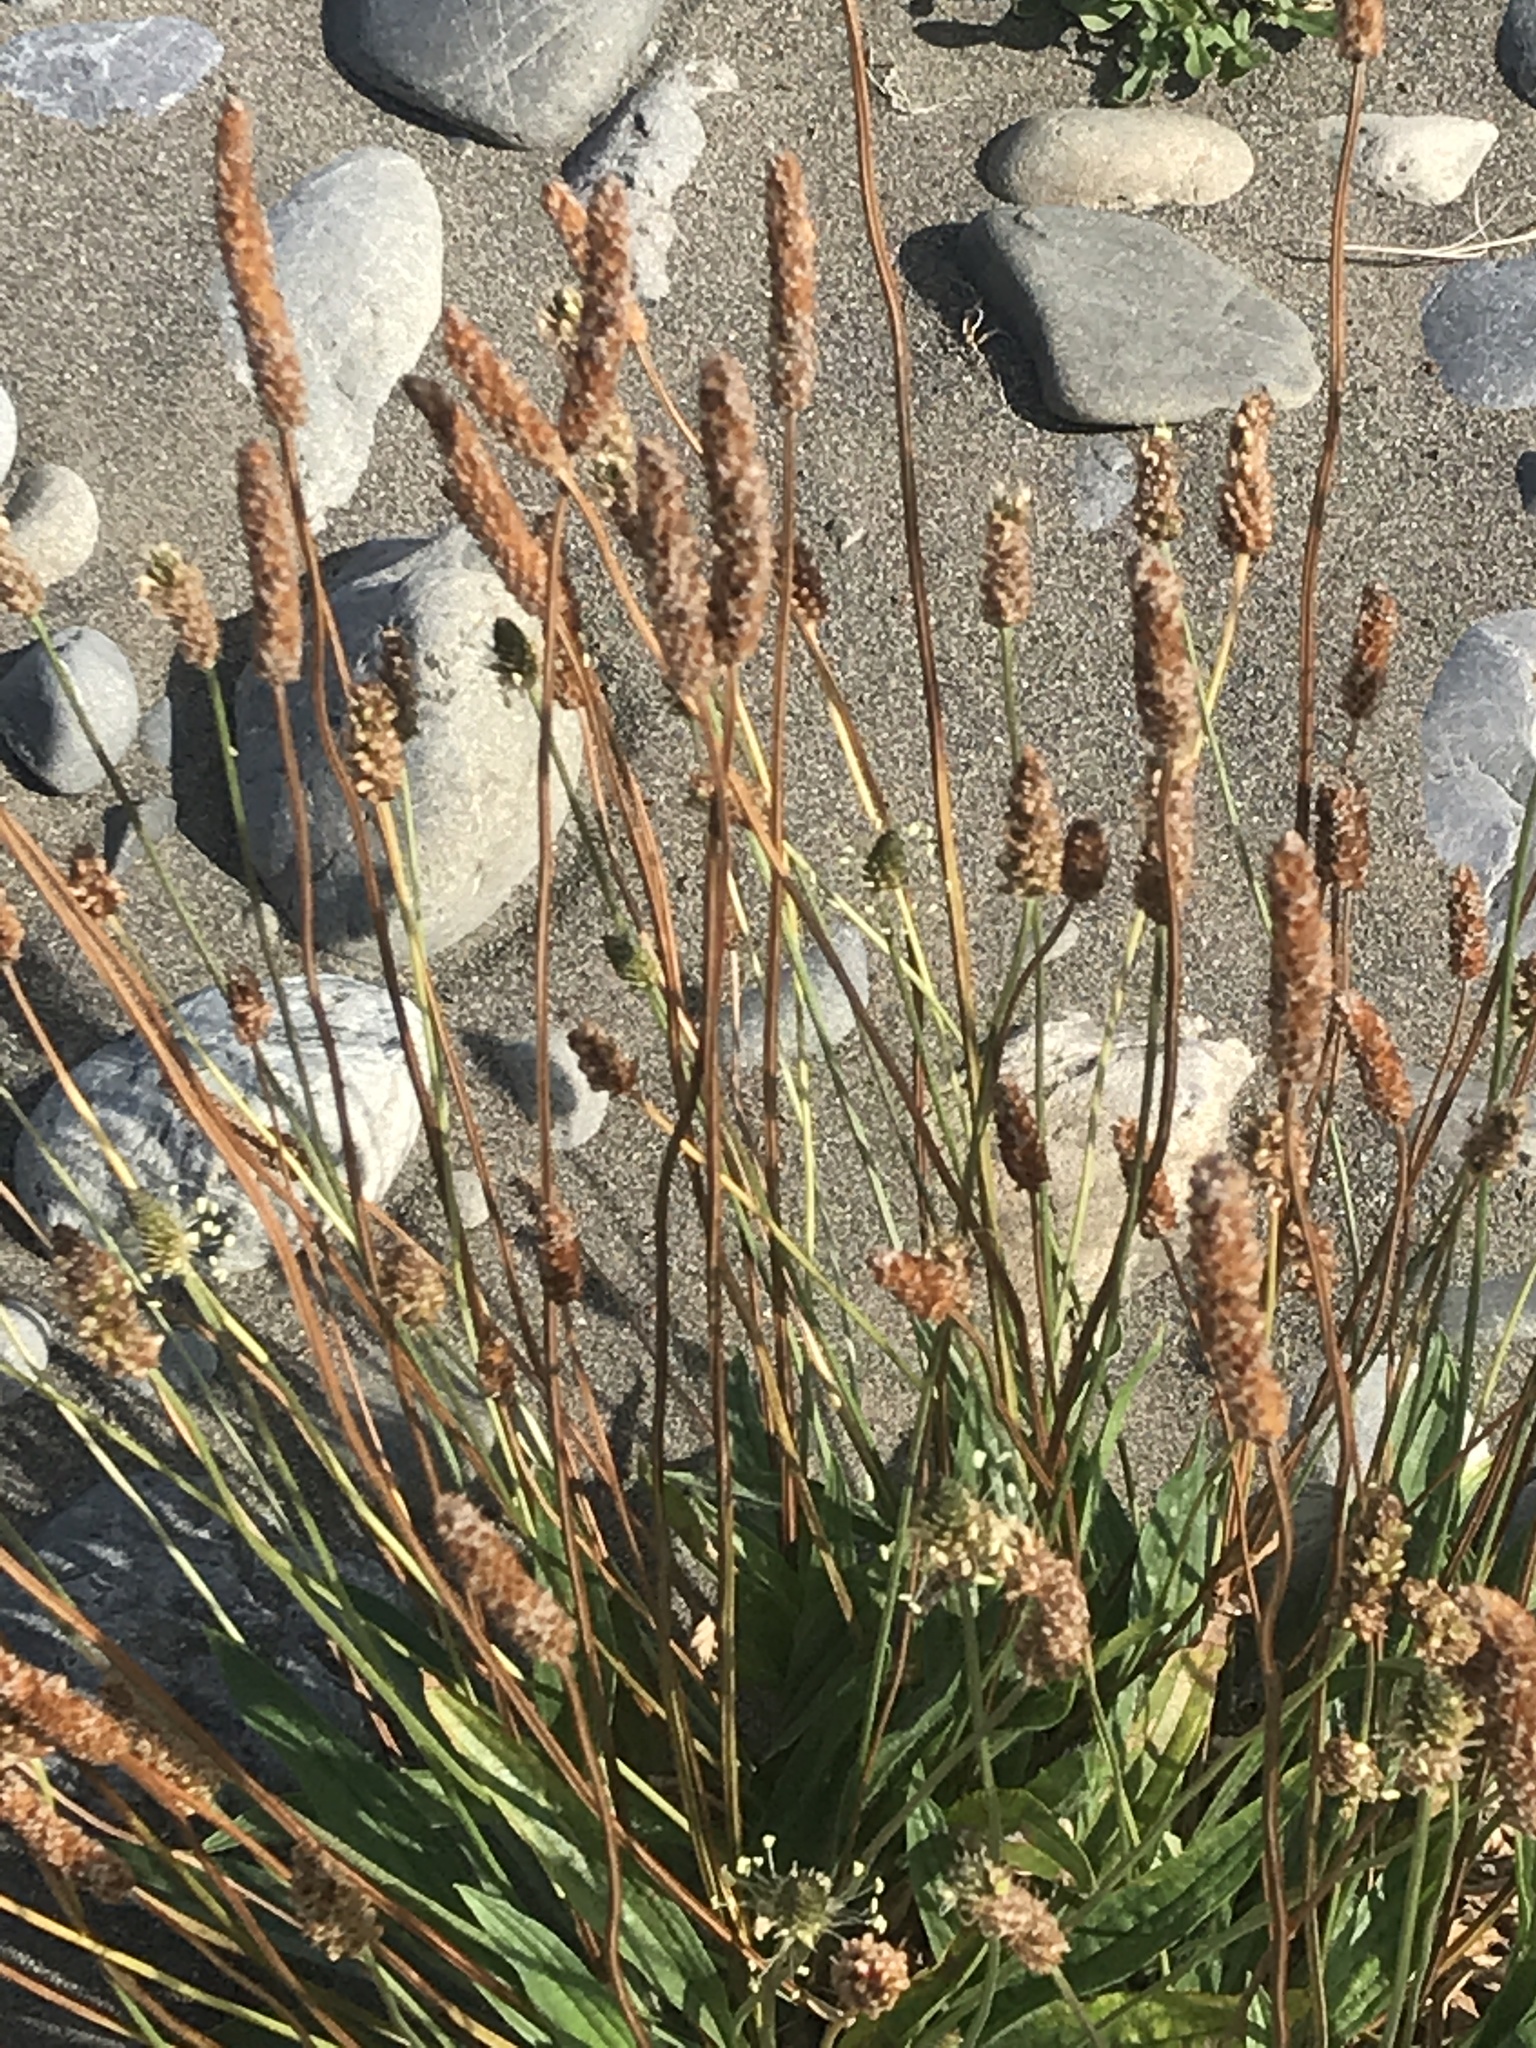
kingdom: Plantae
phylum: Tracheophyta
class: Magnoliopsida
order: Lamiales
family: Plantaginaceae
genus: Plantago
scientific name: Plantago lanceolata
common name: Ribwort plantain
